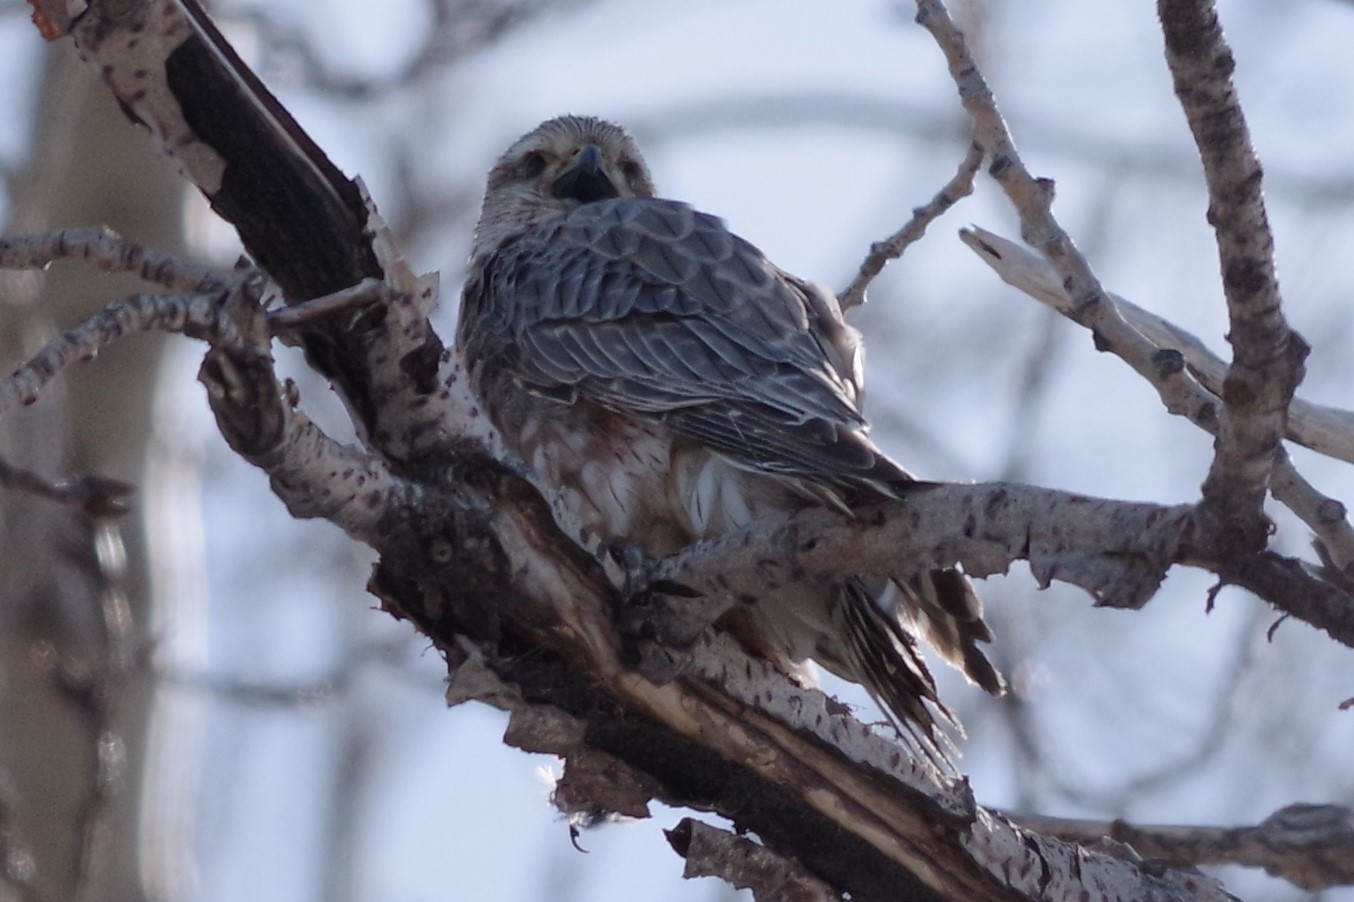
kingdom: Animalia
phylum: Chordata
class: Aves
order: Falconiformes
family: Falconidae
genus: Falco
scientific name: Falco columbarius
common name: Merlin
